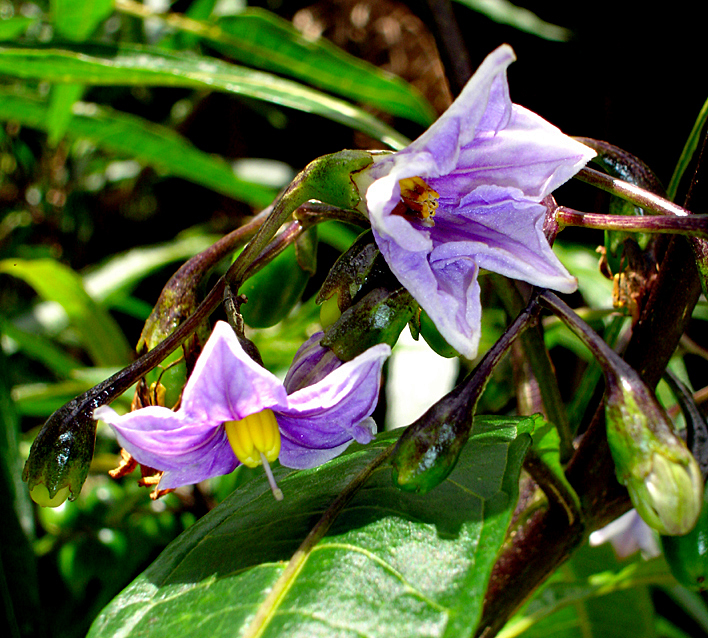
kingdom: Plantae
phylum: Tracheophyta
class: Magnoliopsida
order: Solanales
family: Solanaceae
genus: Solanum
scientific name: Solanum aviculare
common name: New zealand nightshade
